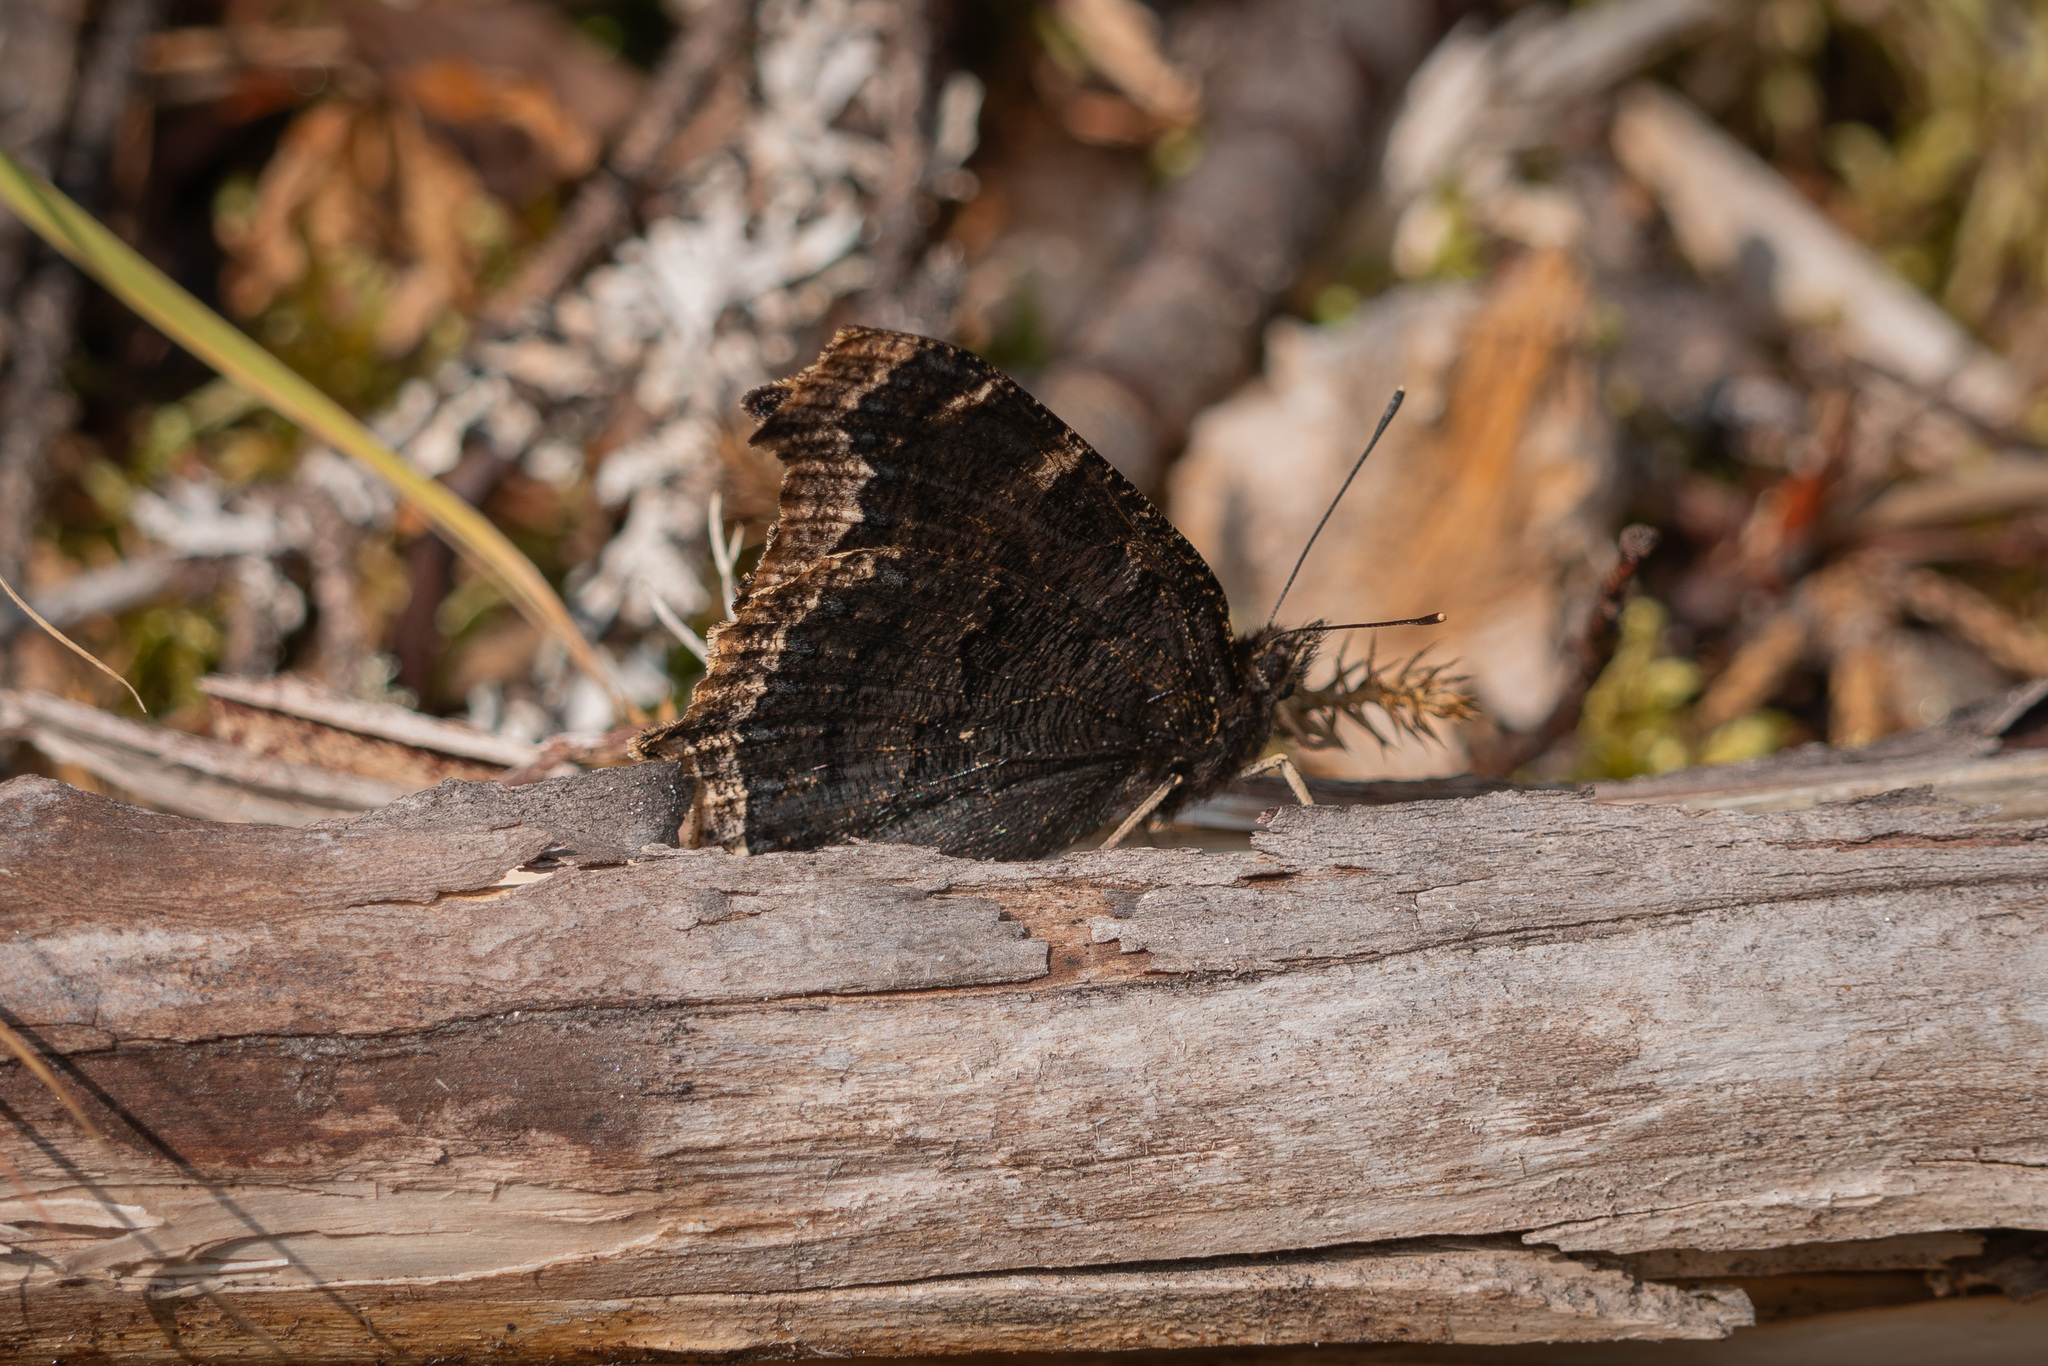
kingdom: Animalia
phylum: Arthropoda
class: Insecta
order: Lepidoptera
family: Nymphalidae
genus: Nymphalis
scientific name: Nymphalis antiopa
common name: Camberwell beauty
